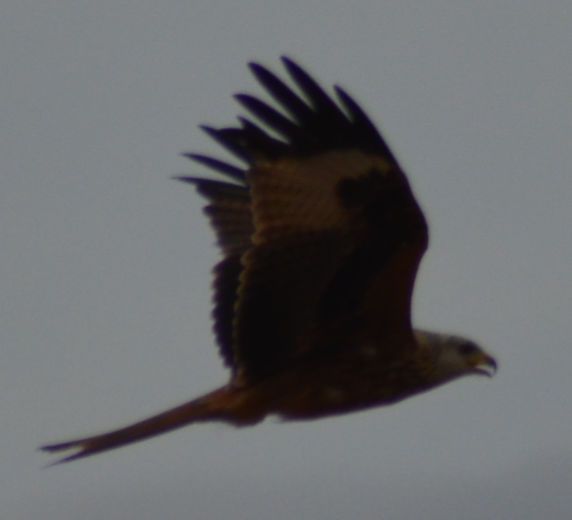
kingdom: Animalia
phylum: Chordata
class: Aves
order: Accipitriformes
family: Accipitridae
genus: Milvus
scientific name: Milvus milvus
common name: Red kite
